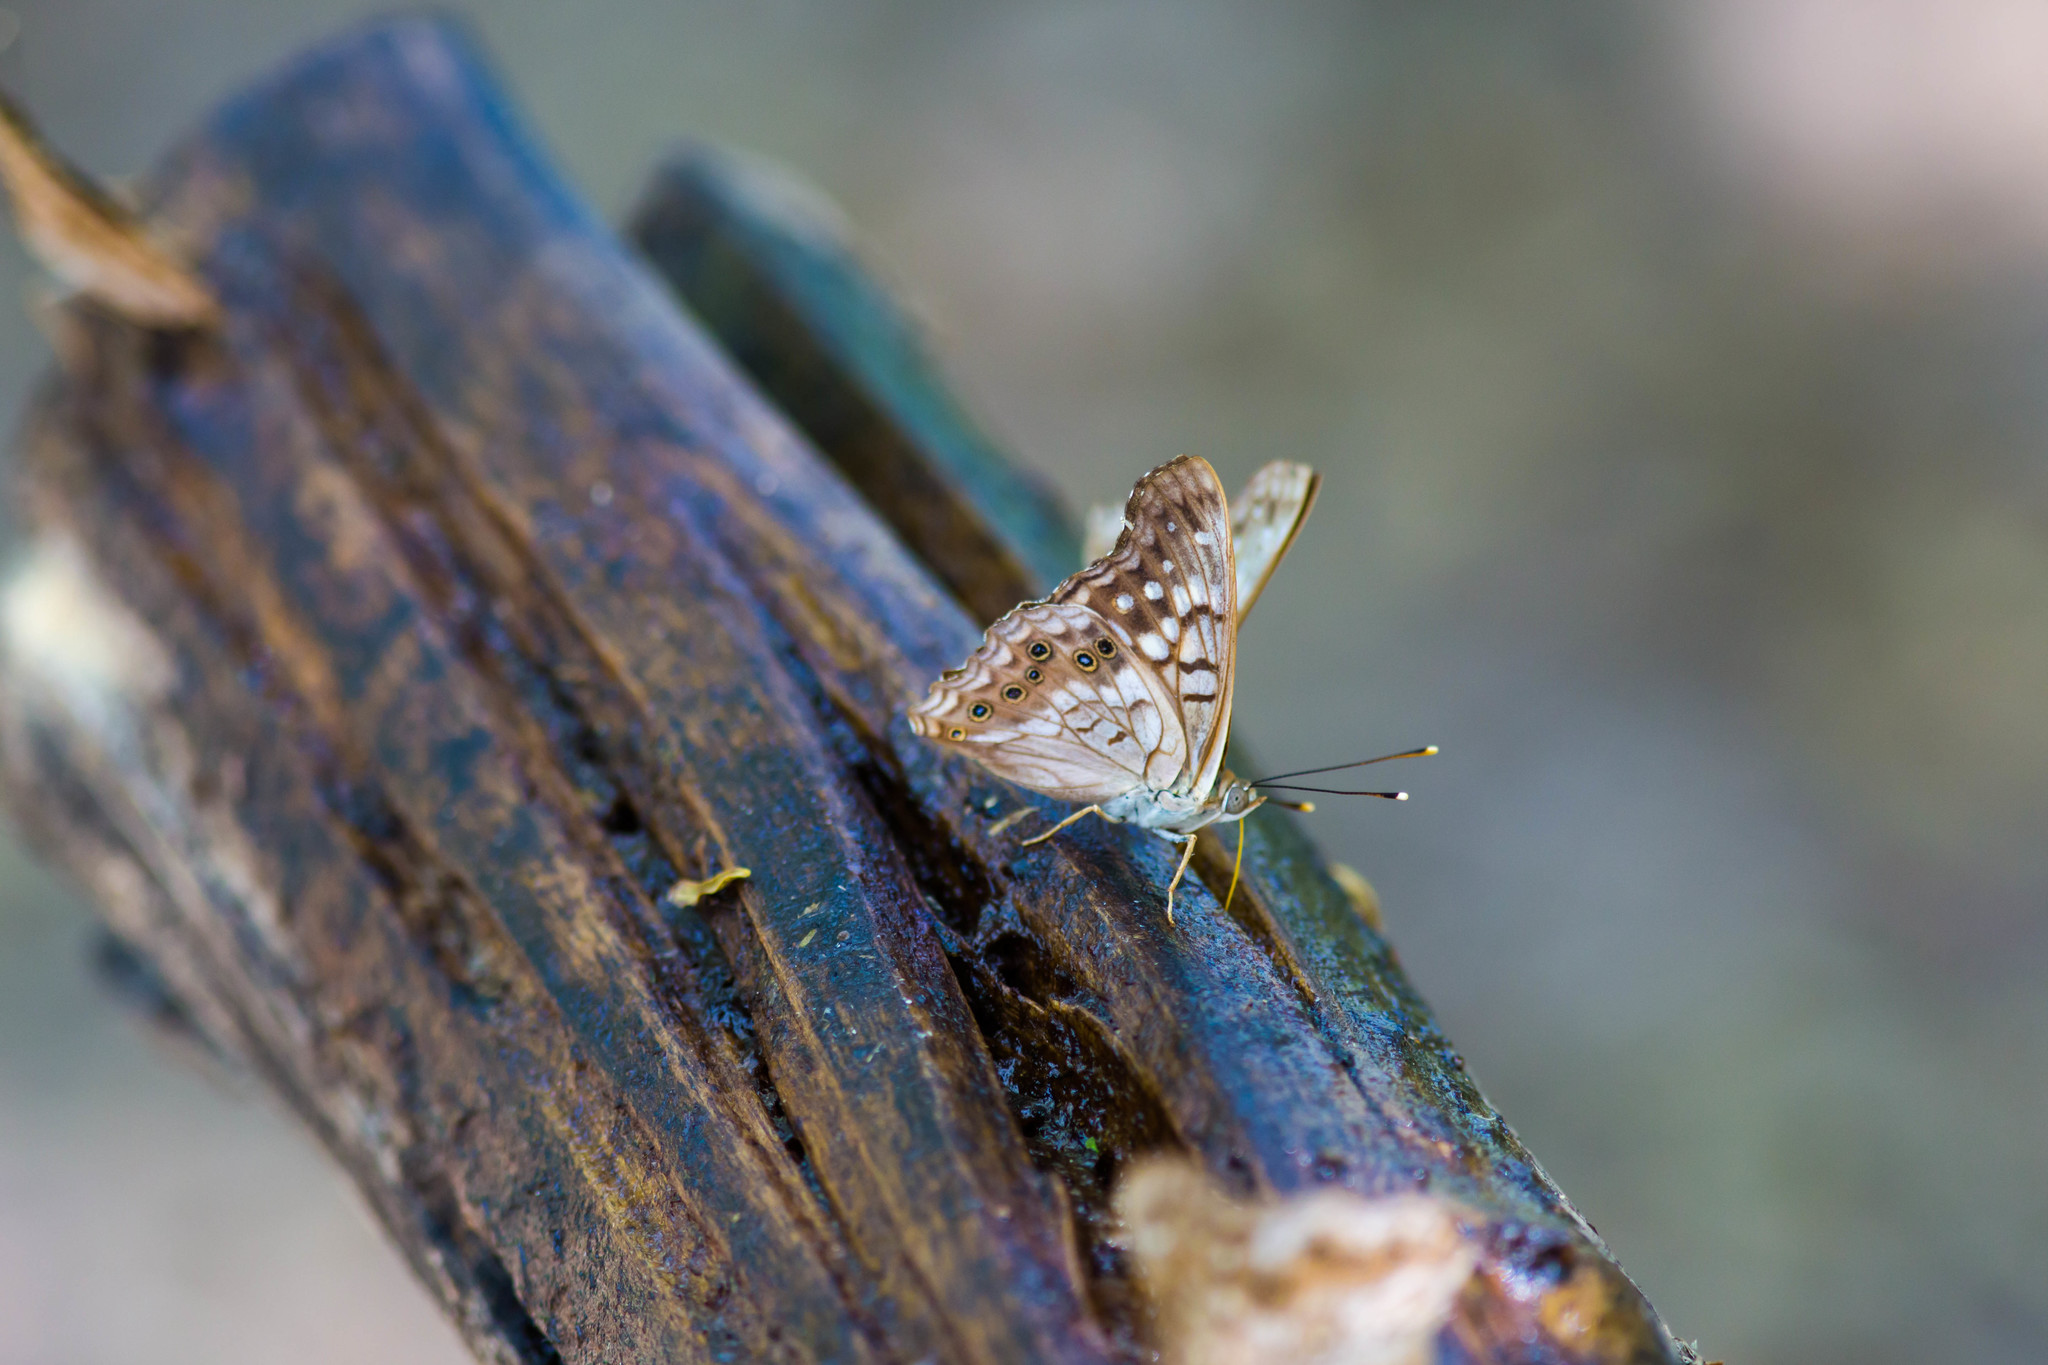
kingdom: Animalia
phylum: Arthropoda
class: Insecta
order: Lepidoptera
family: Nymphalidae
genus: Asterocampa
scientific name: Asterocampa clyton
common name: Tawny emperor
